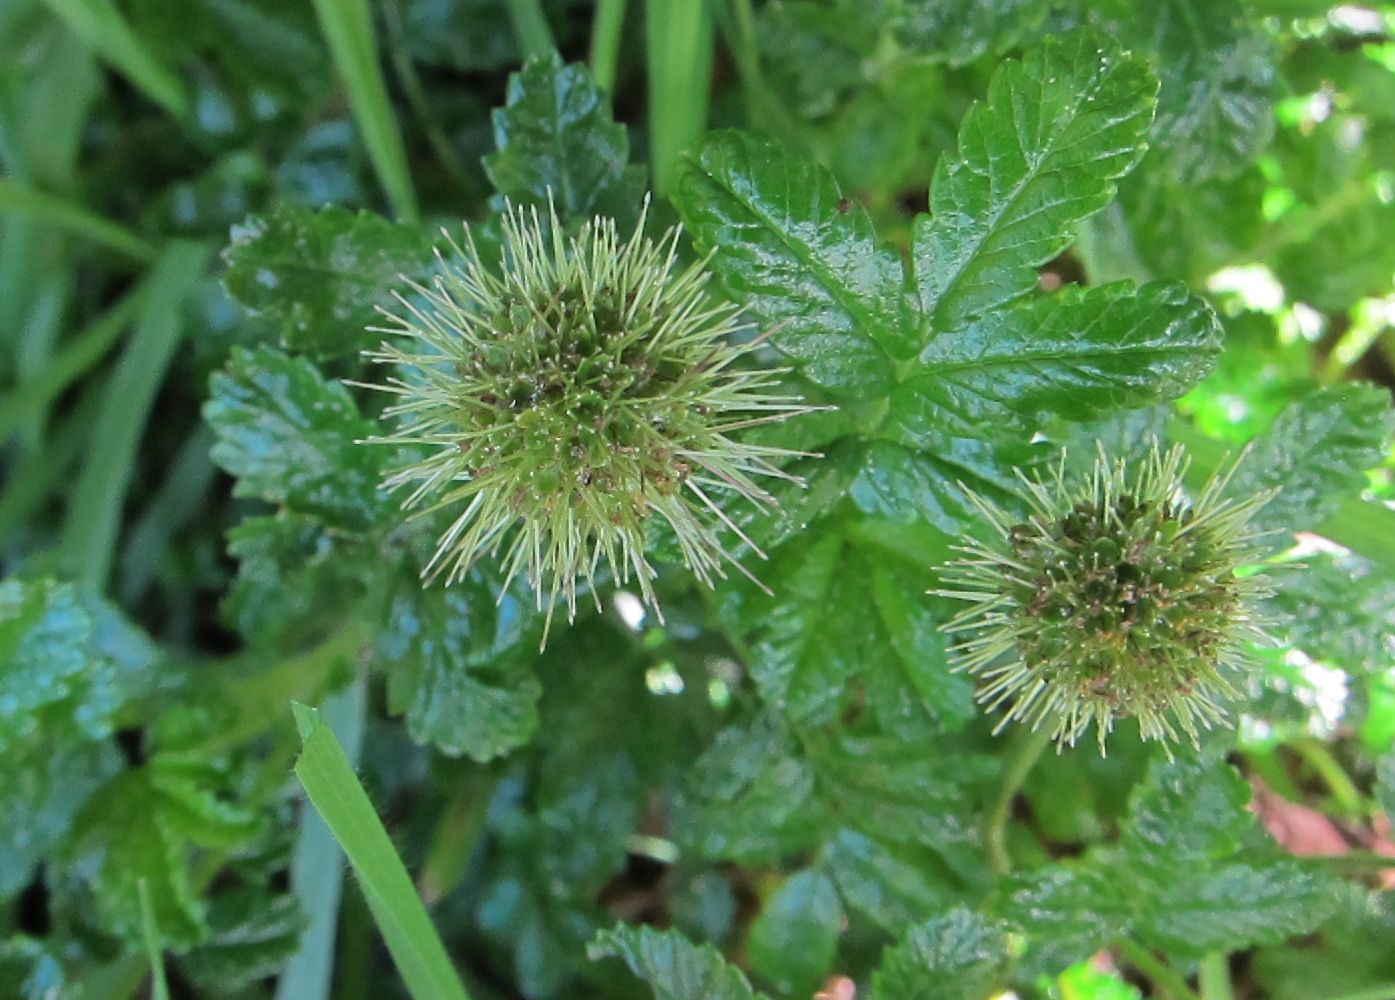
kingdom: Plantae
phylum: Tracheophyta
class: Magnoliopsida
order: Rosales
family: Rosaceae
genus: Acaena
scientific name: Acaena pallida
